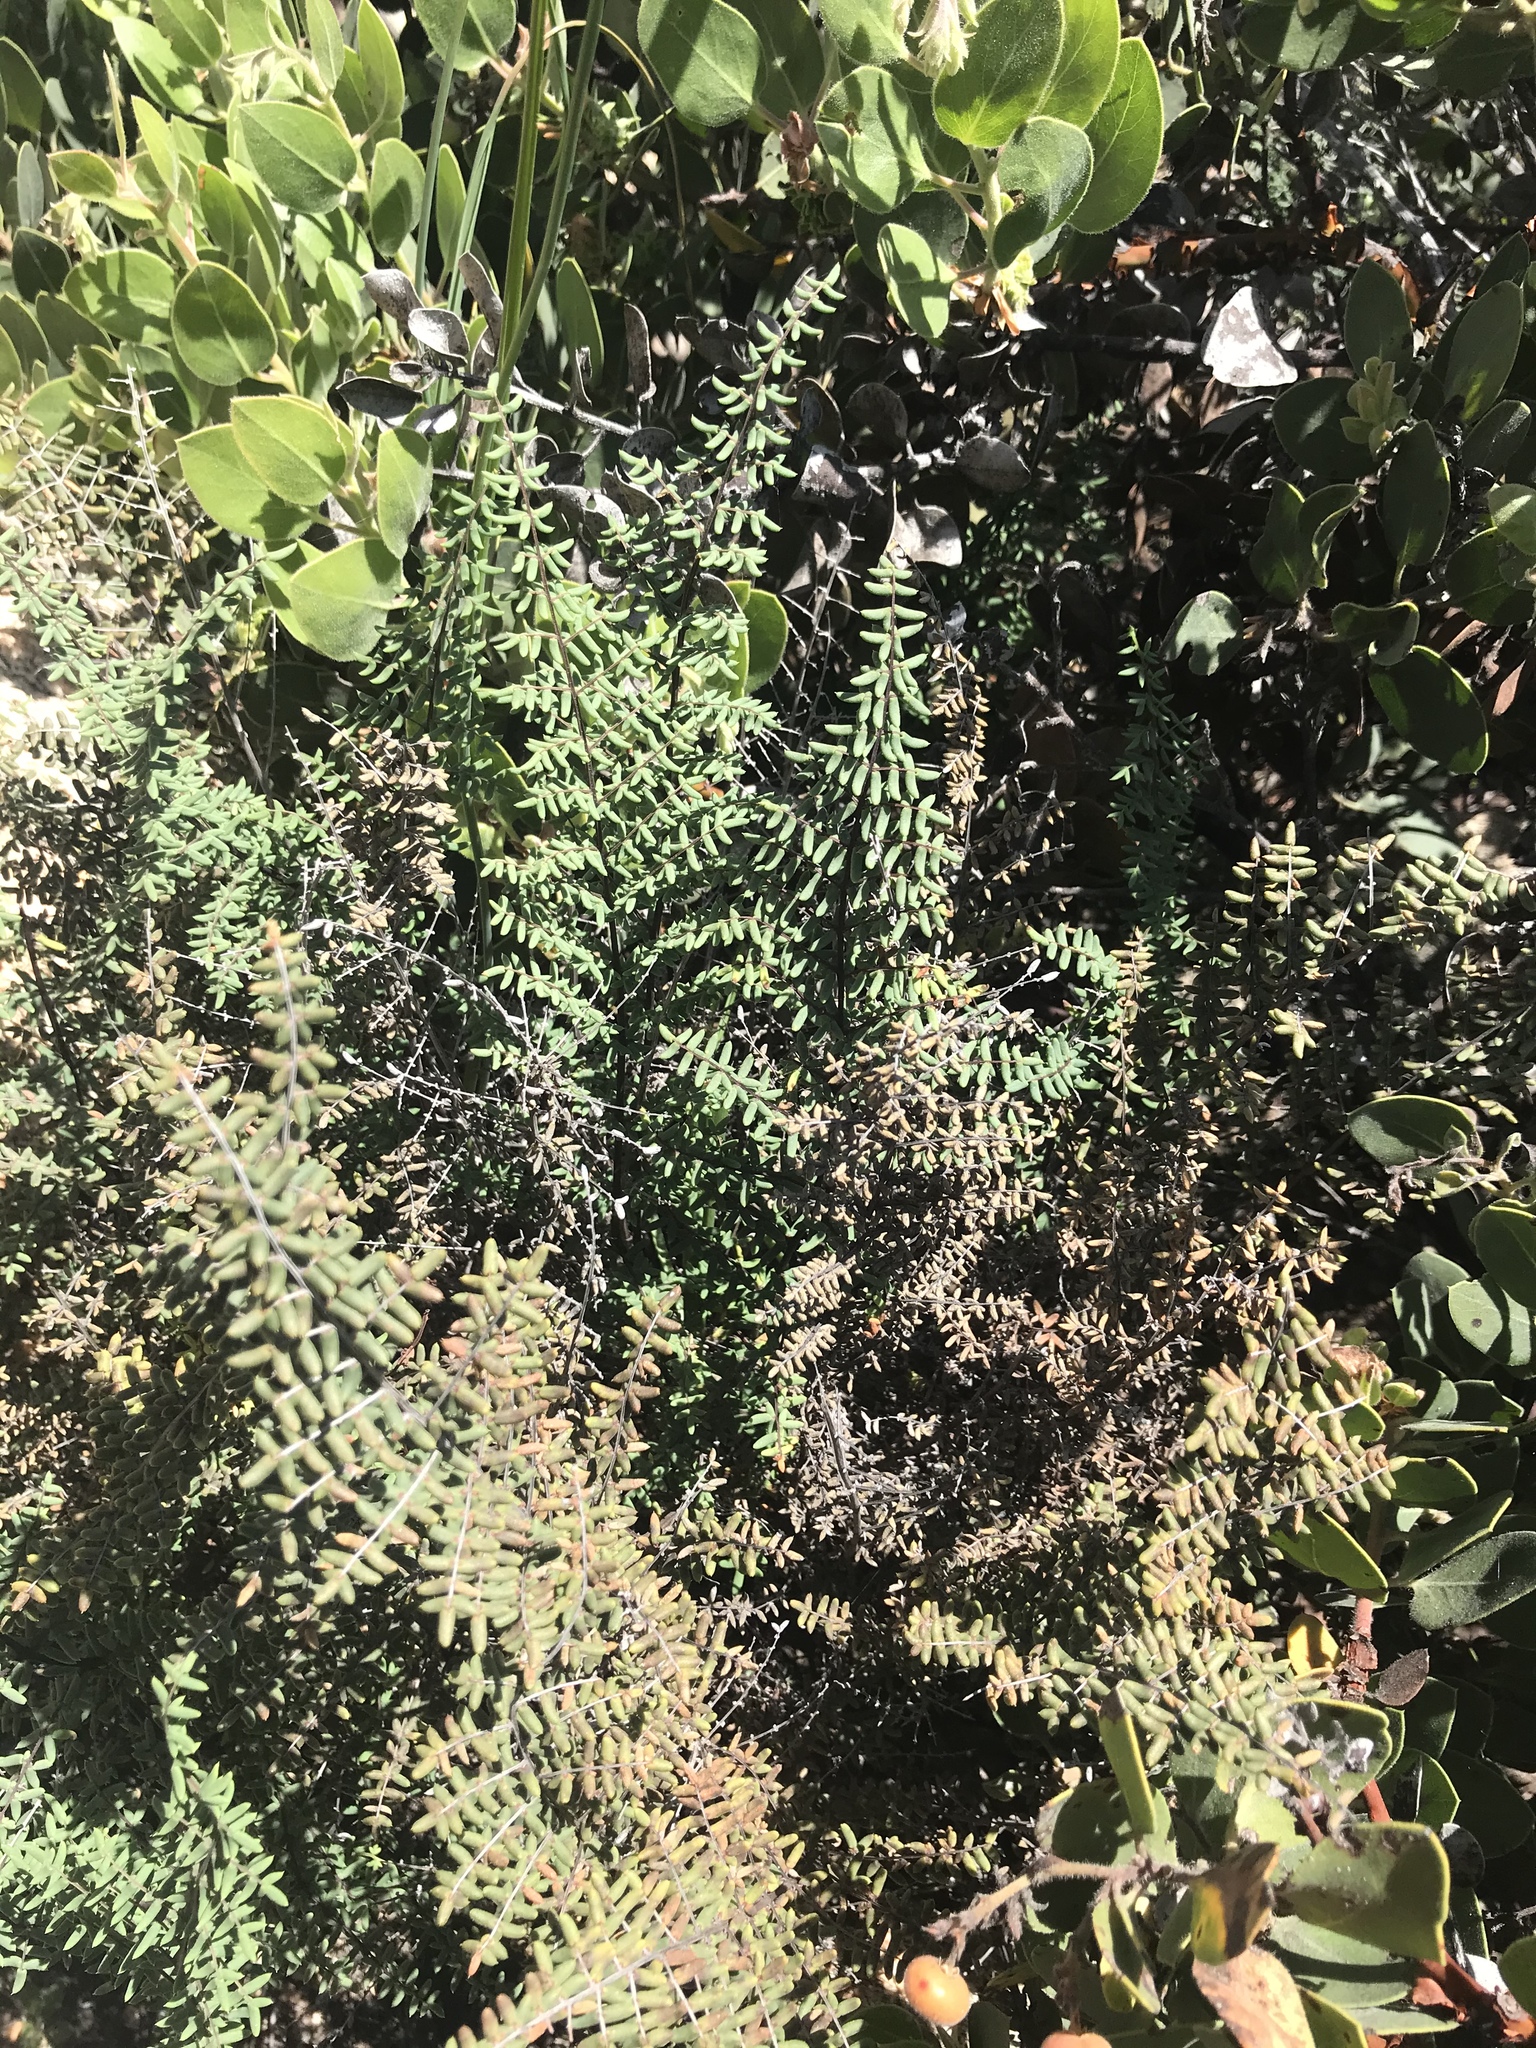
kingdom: Plantae
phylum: Tracheophyta
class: Polypodiopsida
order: Polypodiales
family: Pteridaceae
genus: Pellaea
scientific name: Pellaea mucronata
